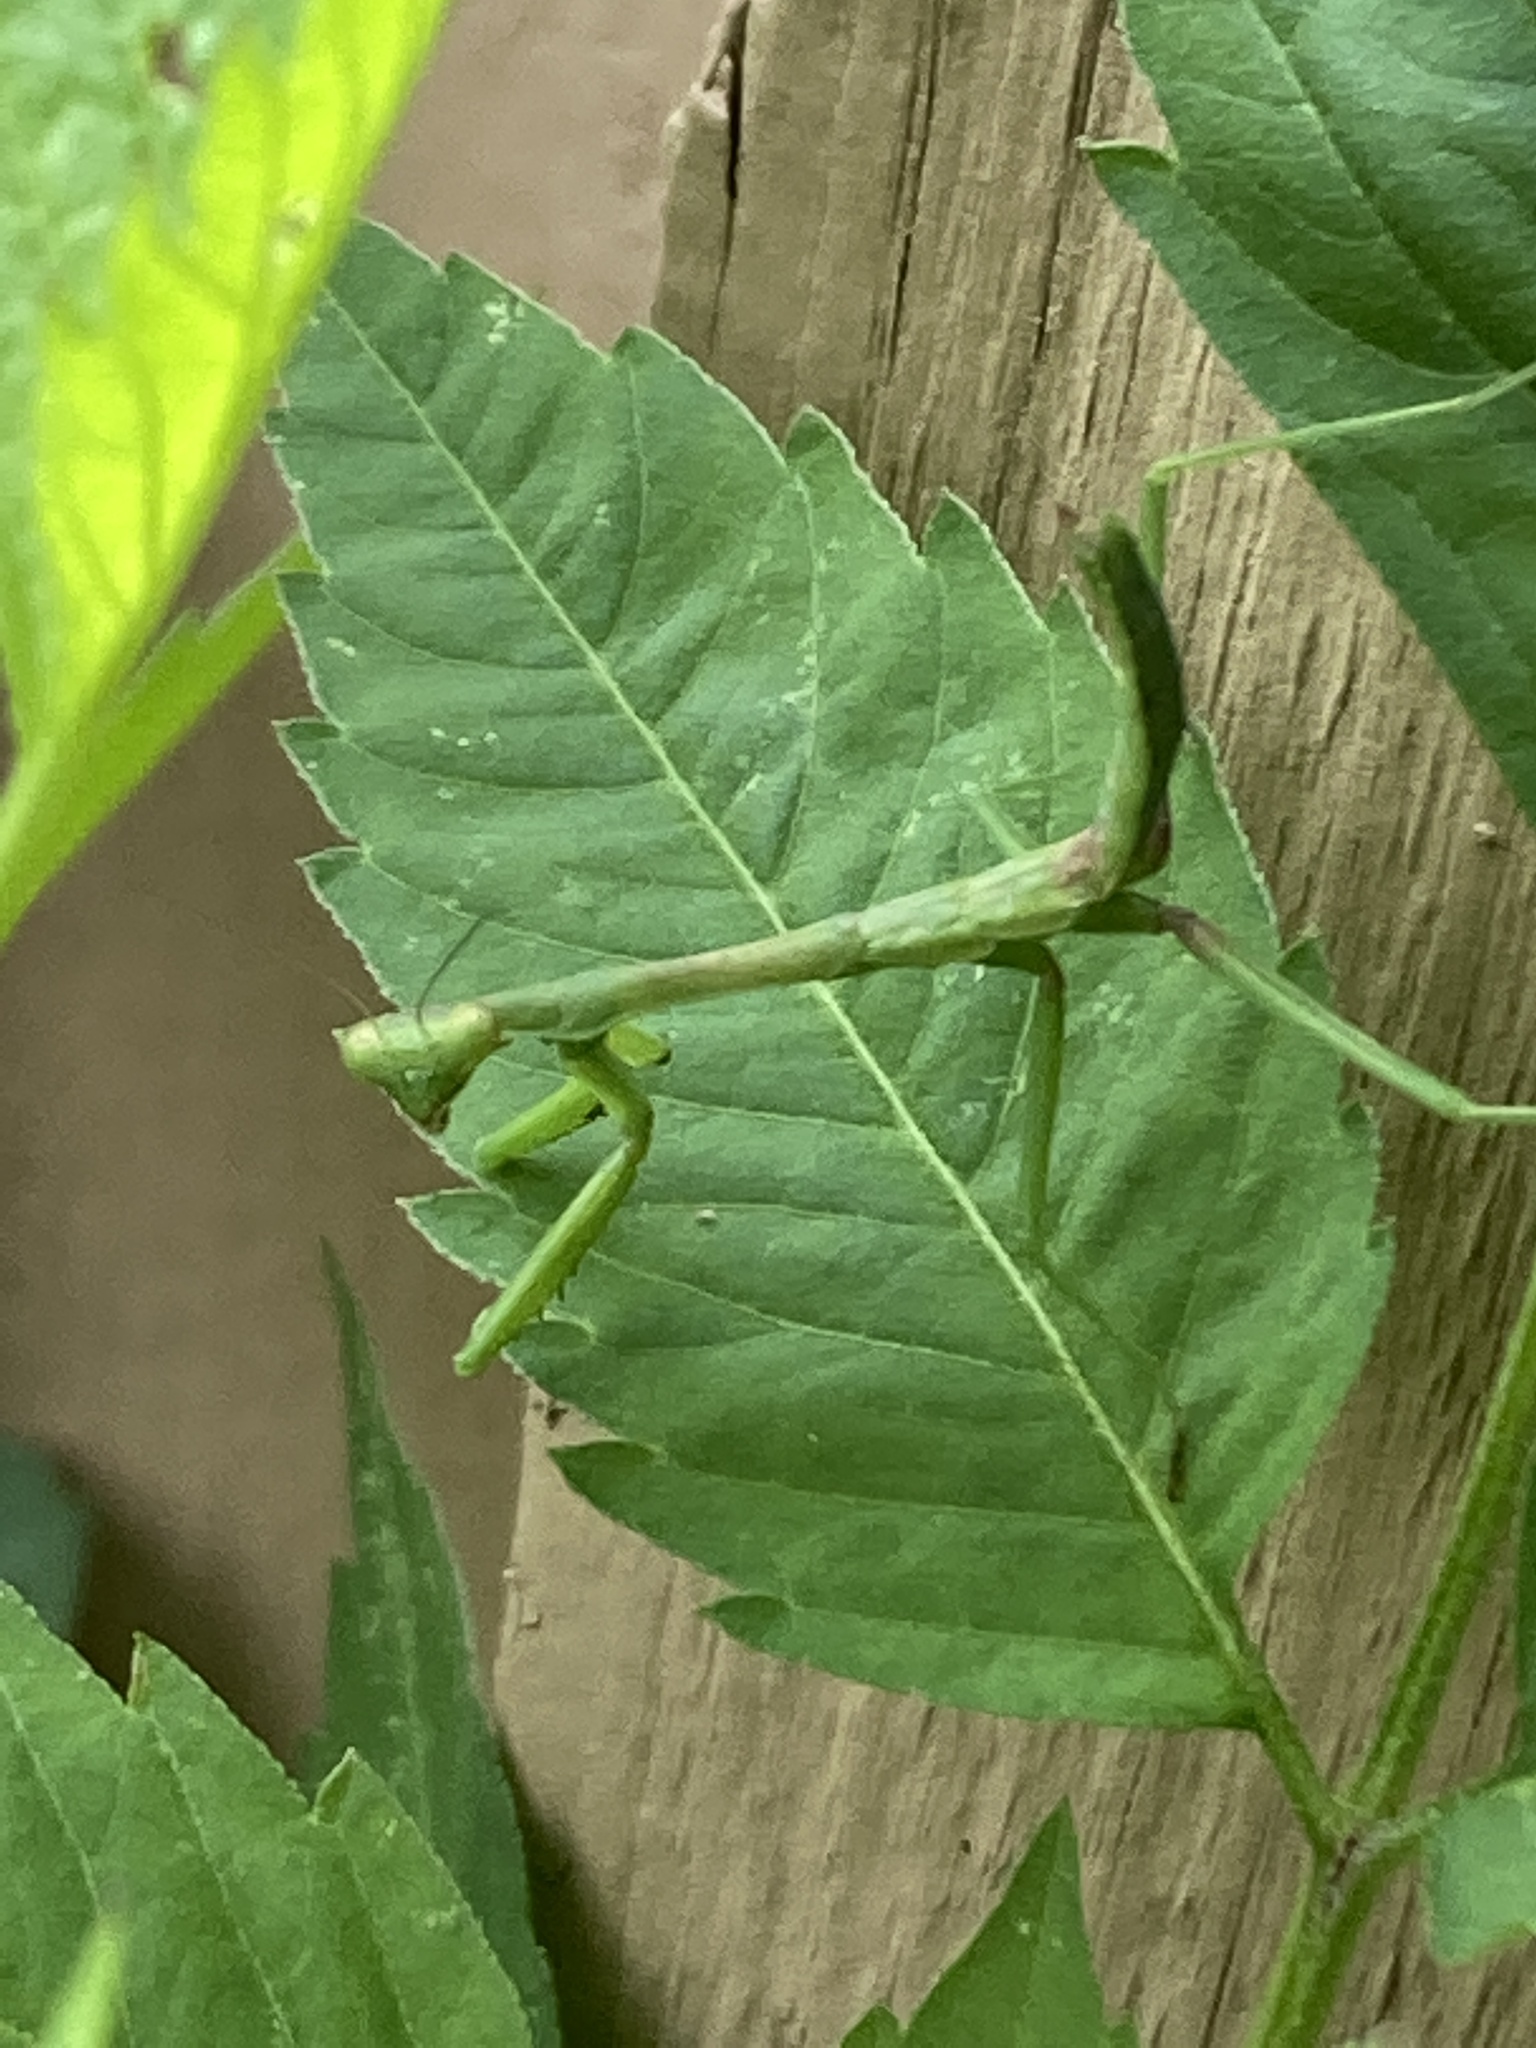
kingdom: Animalia
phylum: Arthropoda
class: Insecta
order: Mantodea
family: Mantidae
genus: Stagmomantis
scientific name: Stagmomantis carolina
